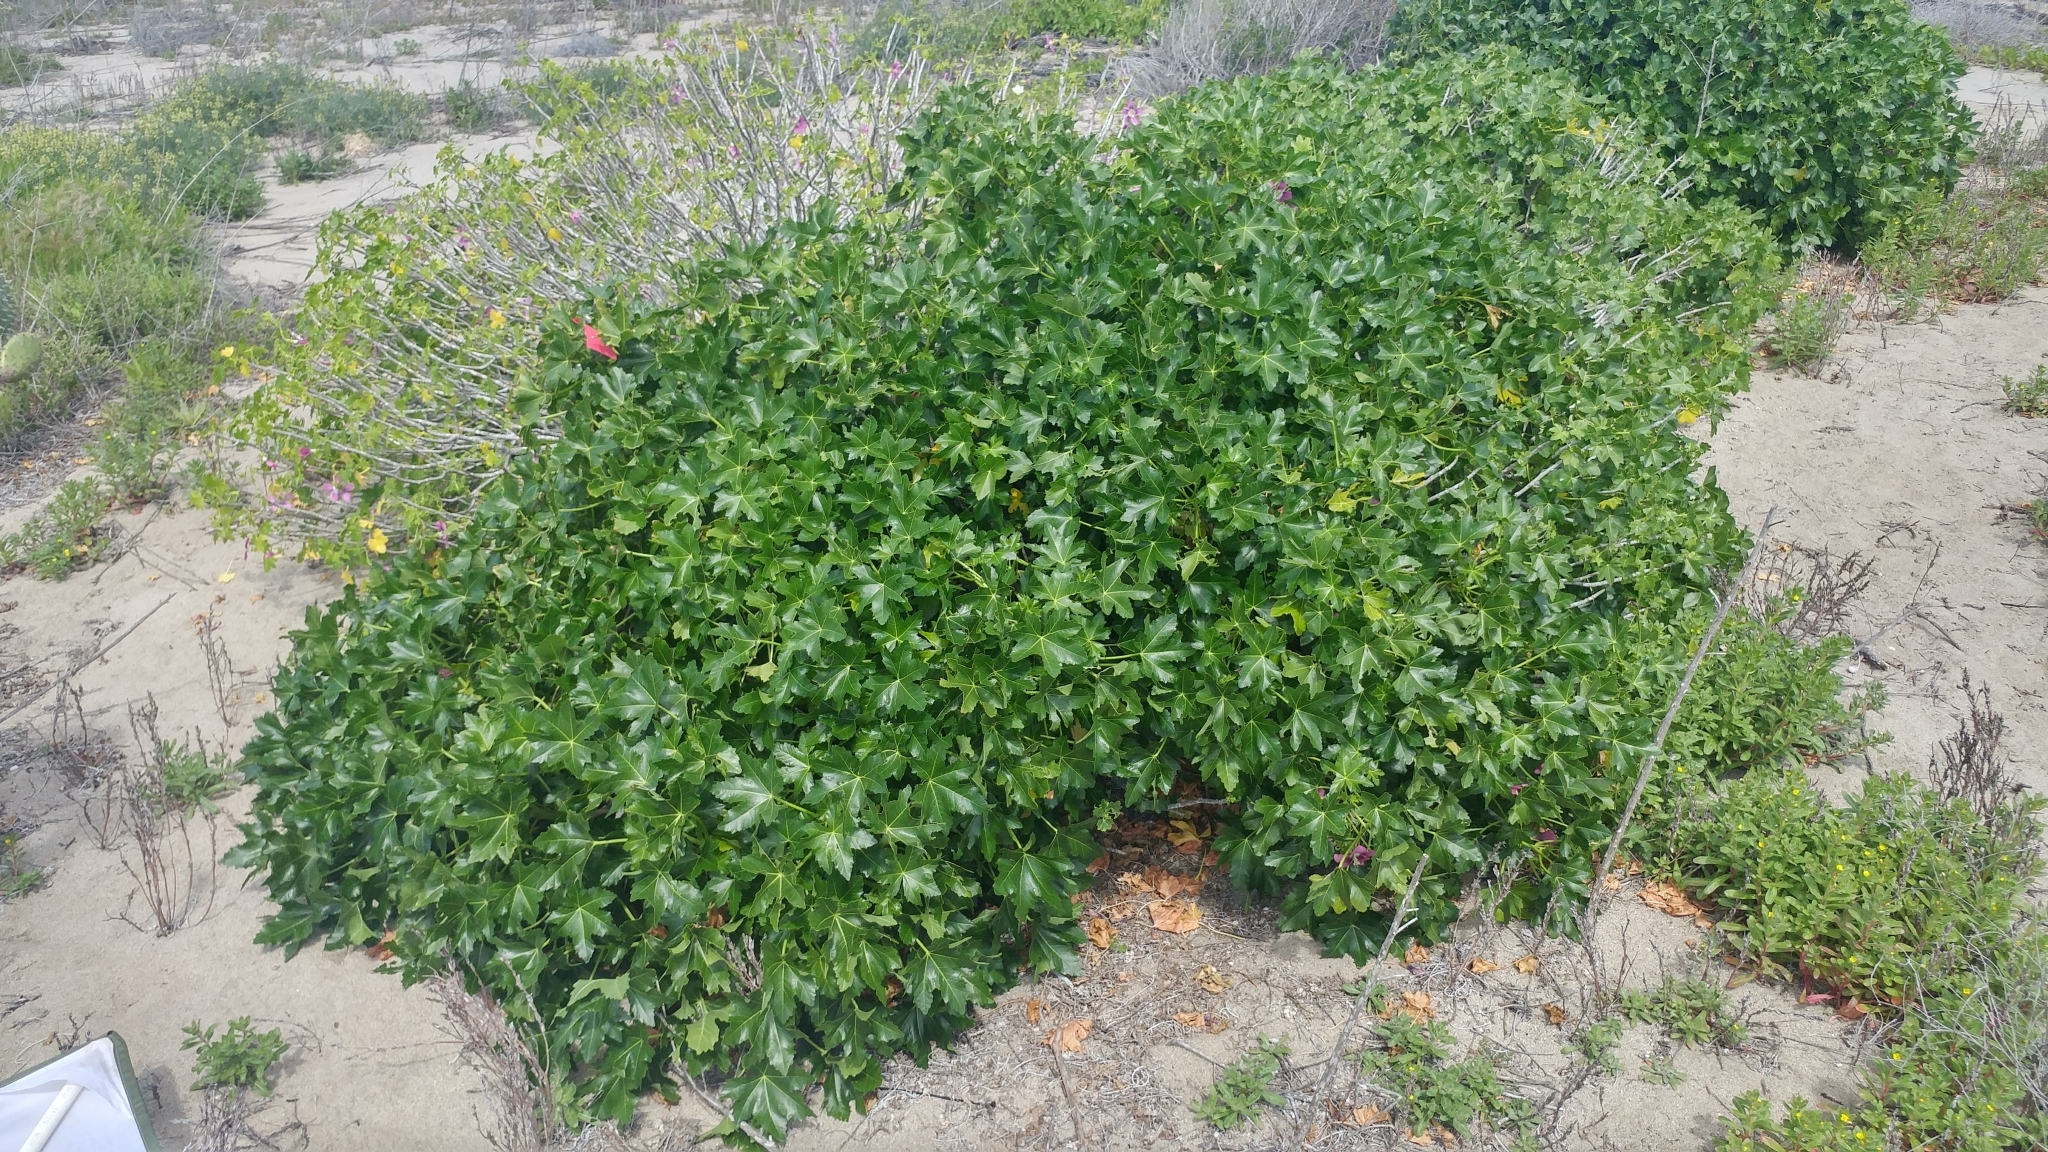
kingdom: Plantae
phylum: Tracheophyta
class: Magnoliopsida
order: Malvales
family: Malvaceae
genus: Malva
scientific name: Malva assurgentiflora
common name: Island mallow
